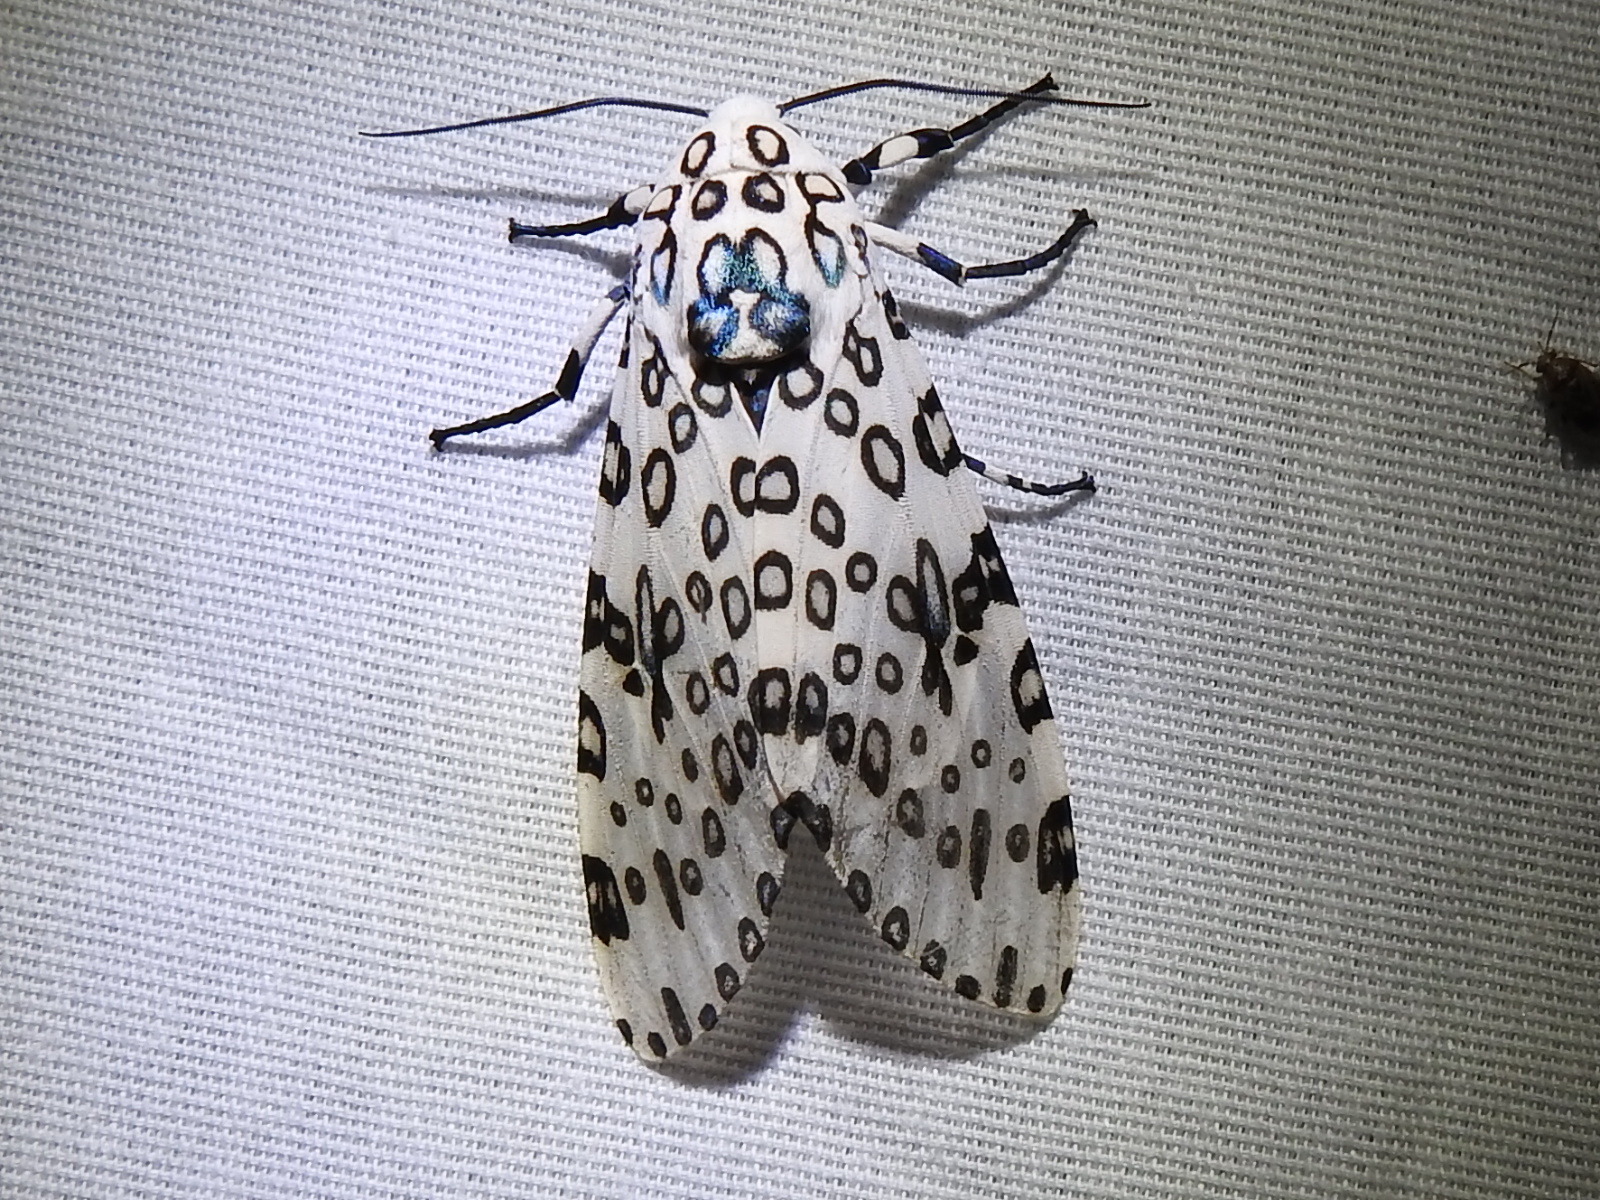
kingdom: Animalia
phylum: Arthropoda
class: Insecta
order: Lepidoptera
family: Erebidae
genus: Hypercompe
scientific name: Hypercompe scribonia
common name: Giant leopard moth
